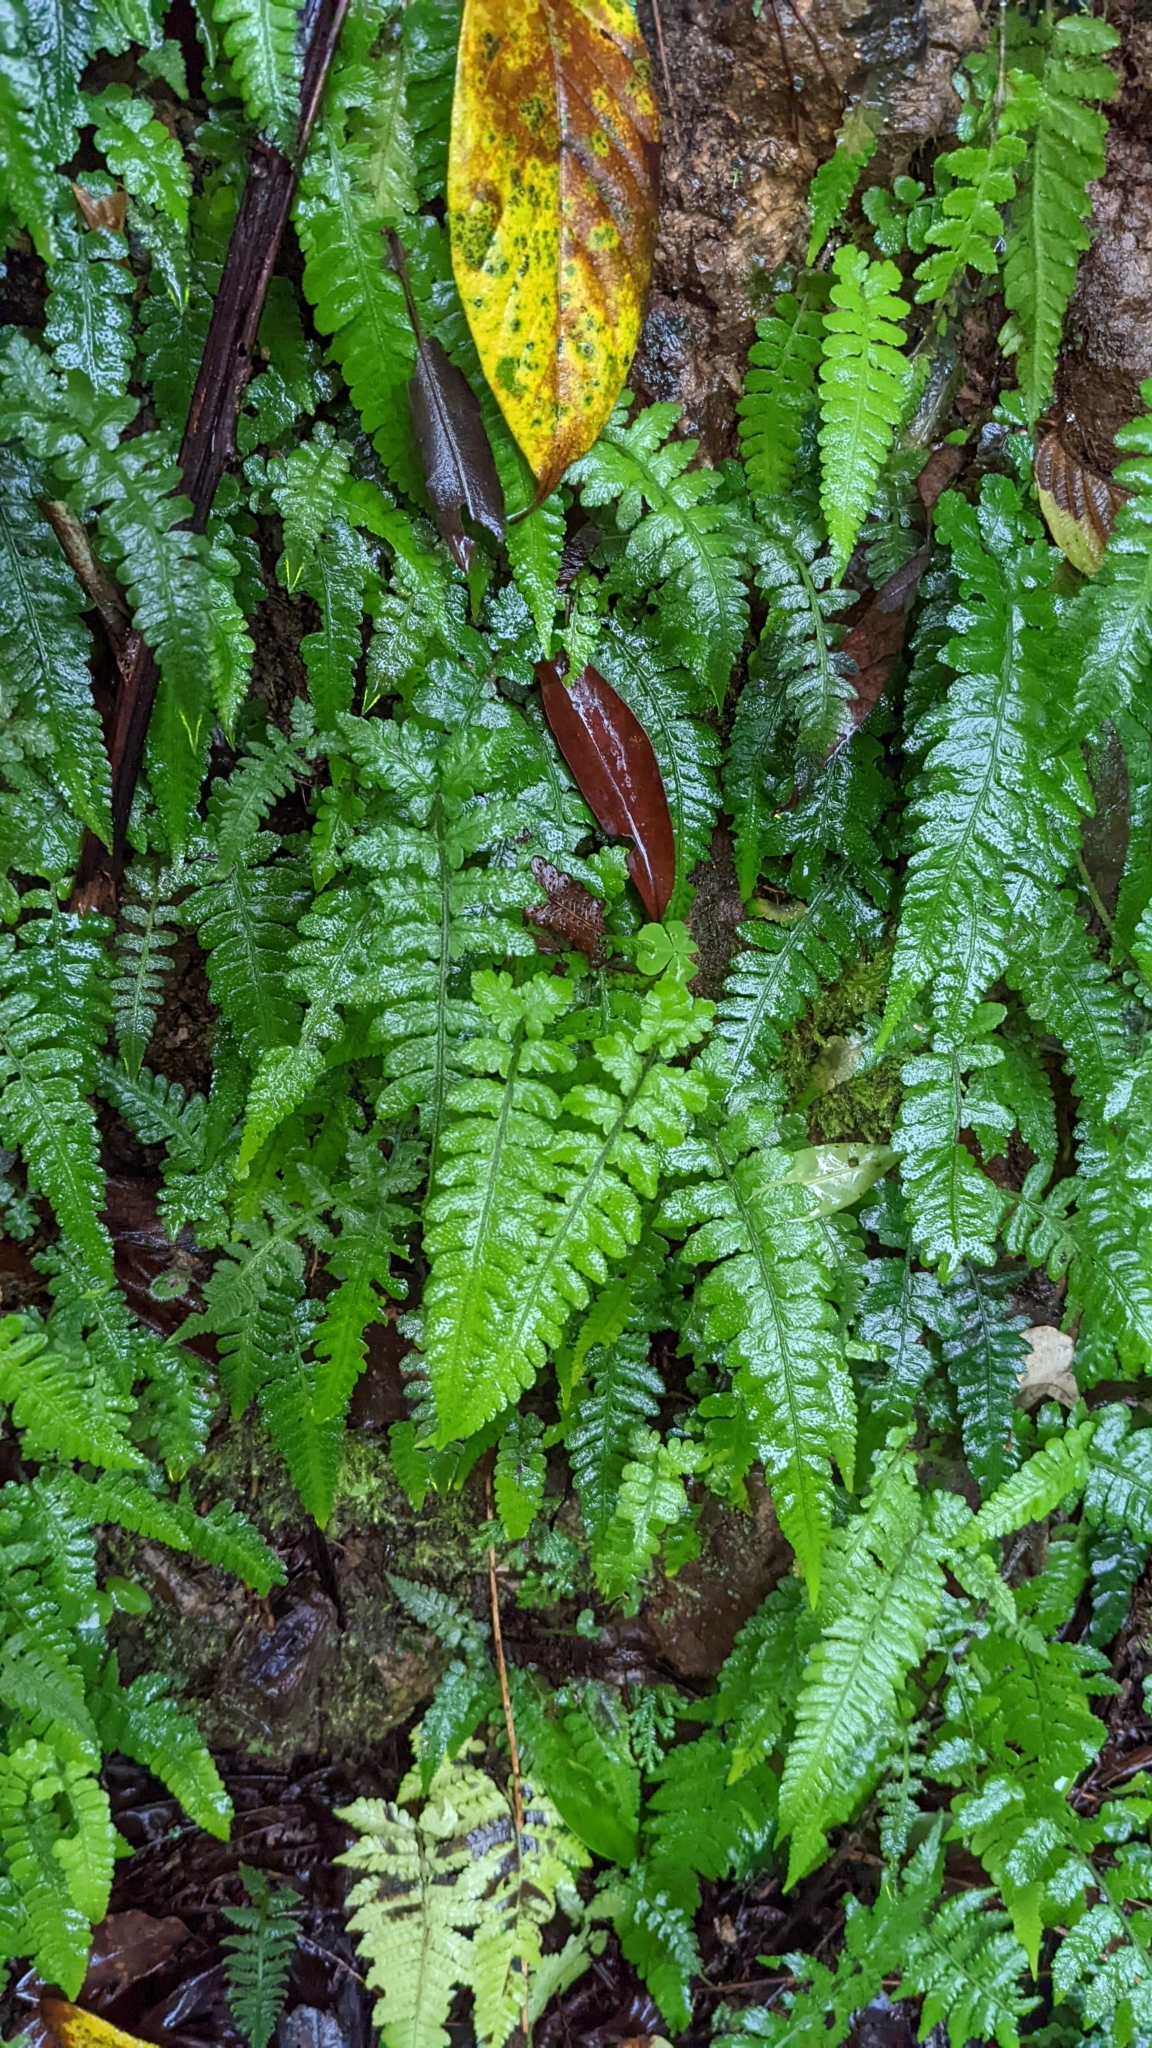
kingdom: Plantae
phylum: Tracheophyta
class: Polypodiopsida
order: Polypodiales
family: Athyriaceae
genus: Deparia
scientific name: Deparia petersenii
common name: Japanese false spleenwort
